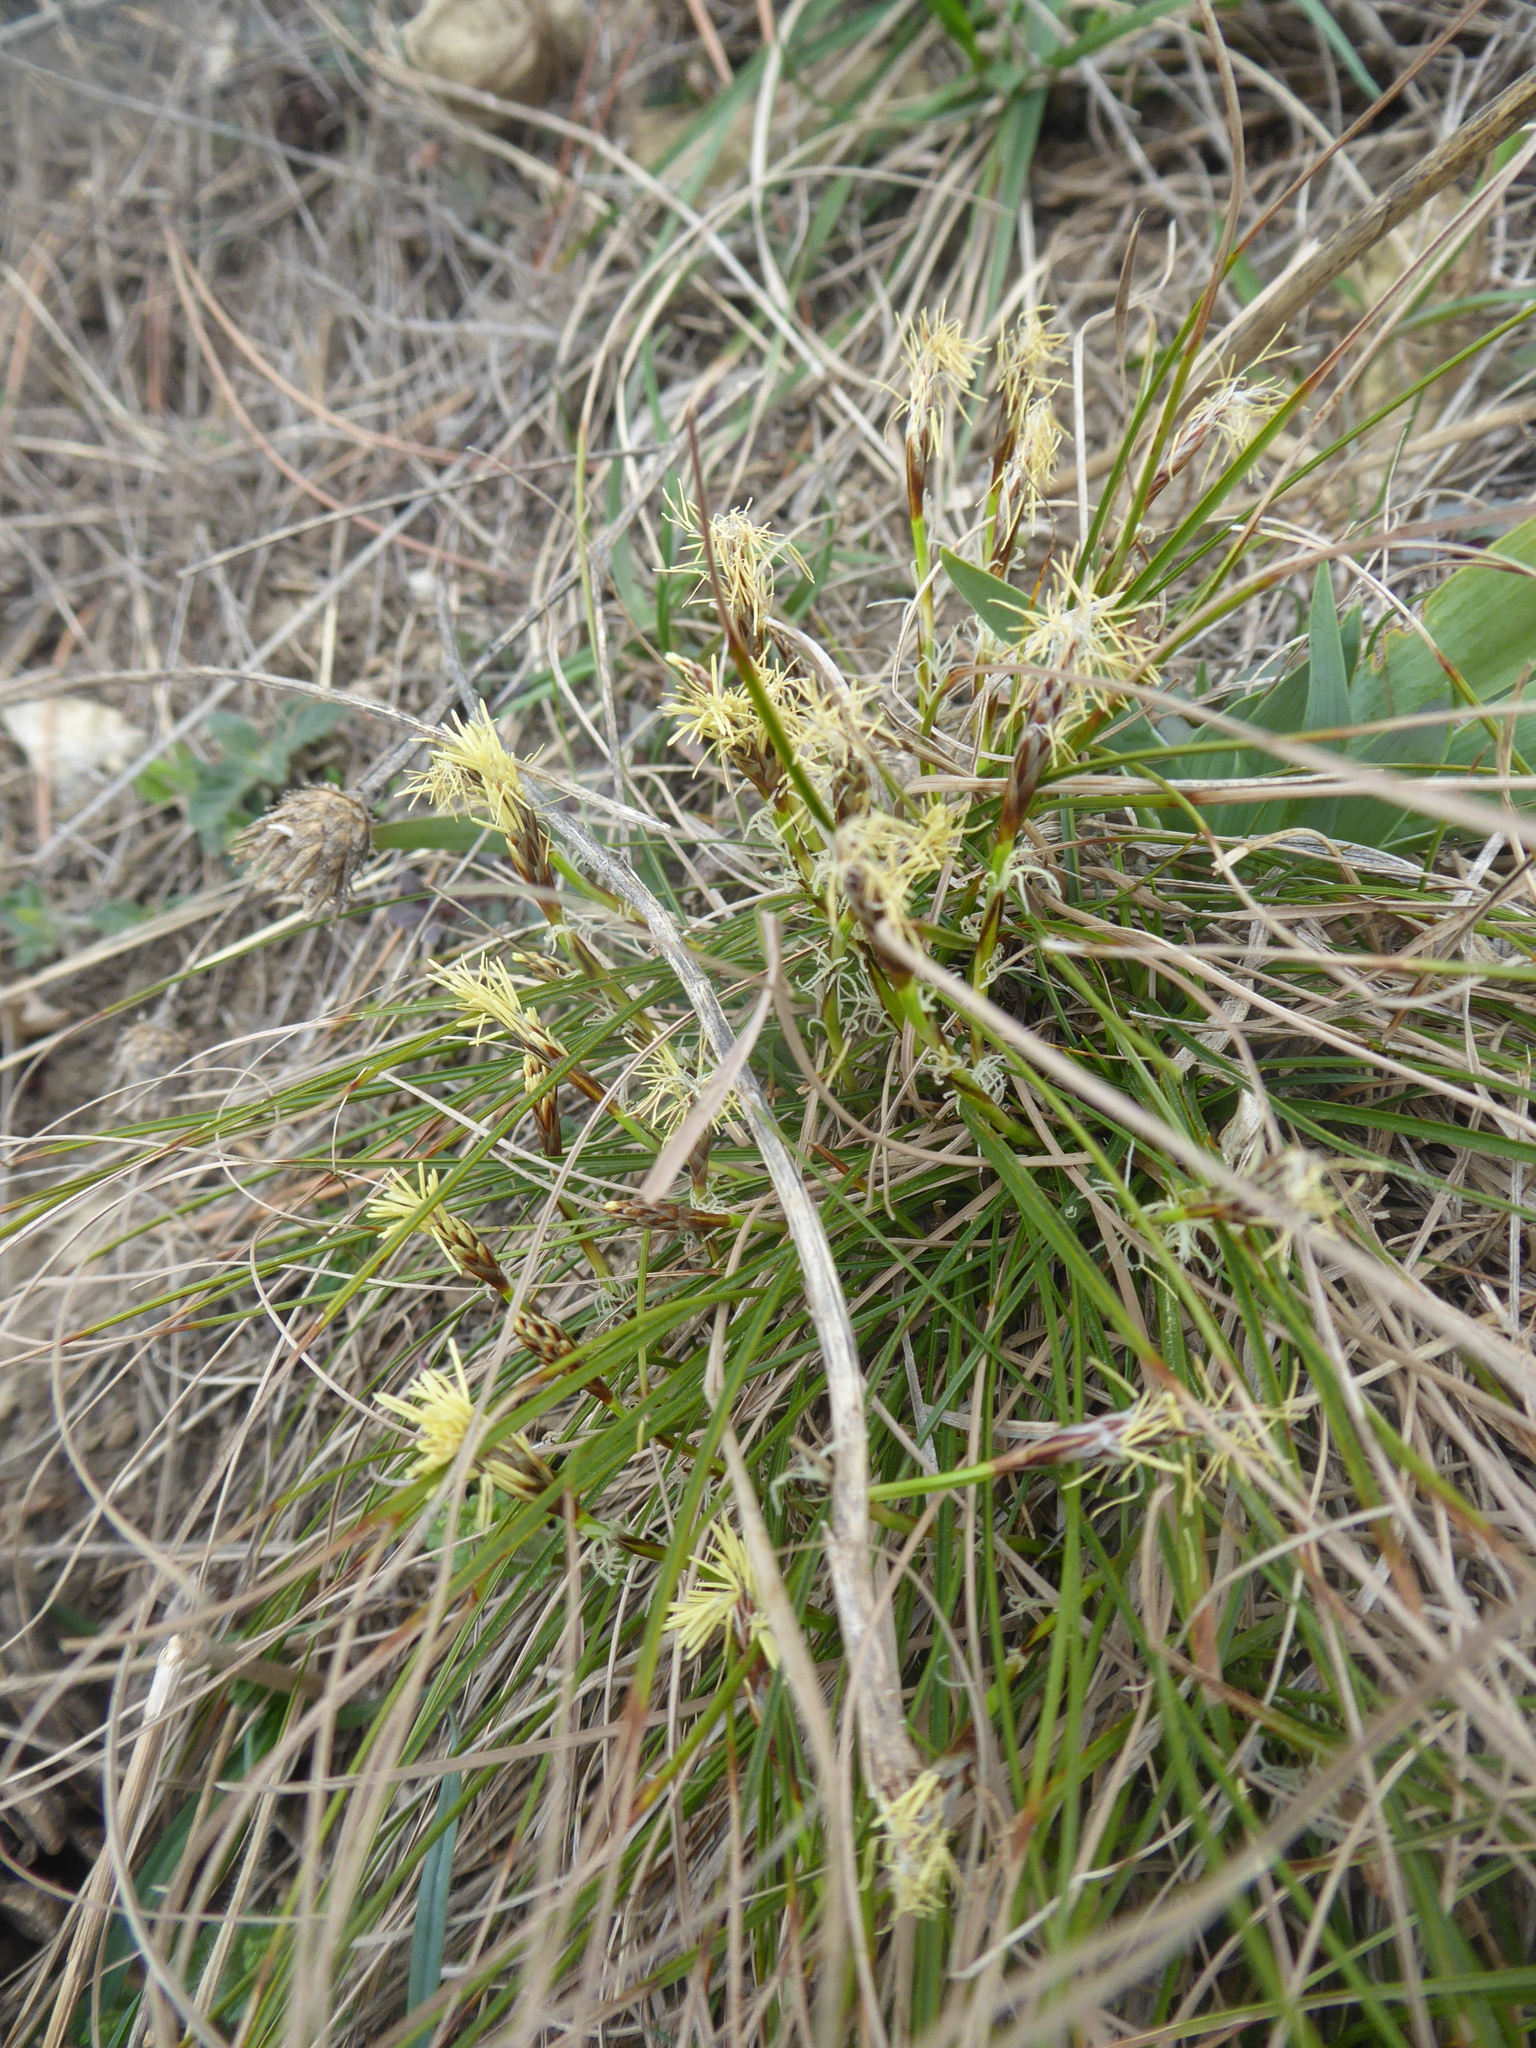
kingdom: Plantae
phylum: Tracheophyta
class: Liliopsida
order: Poales
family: Cyperaceae
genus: Carex
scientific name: Carex humilis
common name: Dwarf sedge
